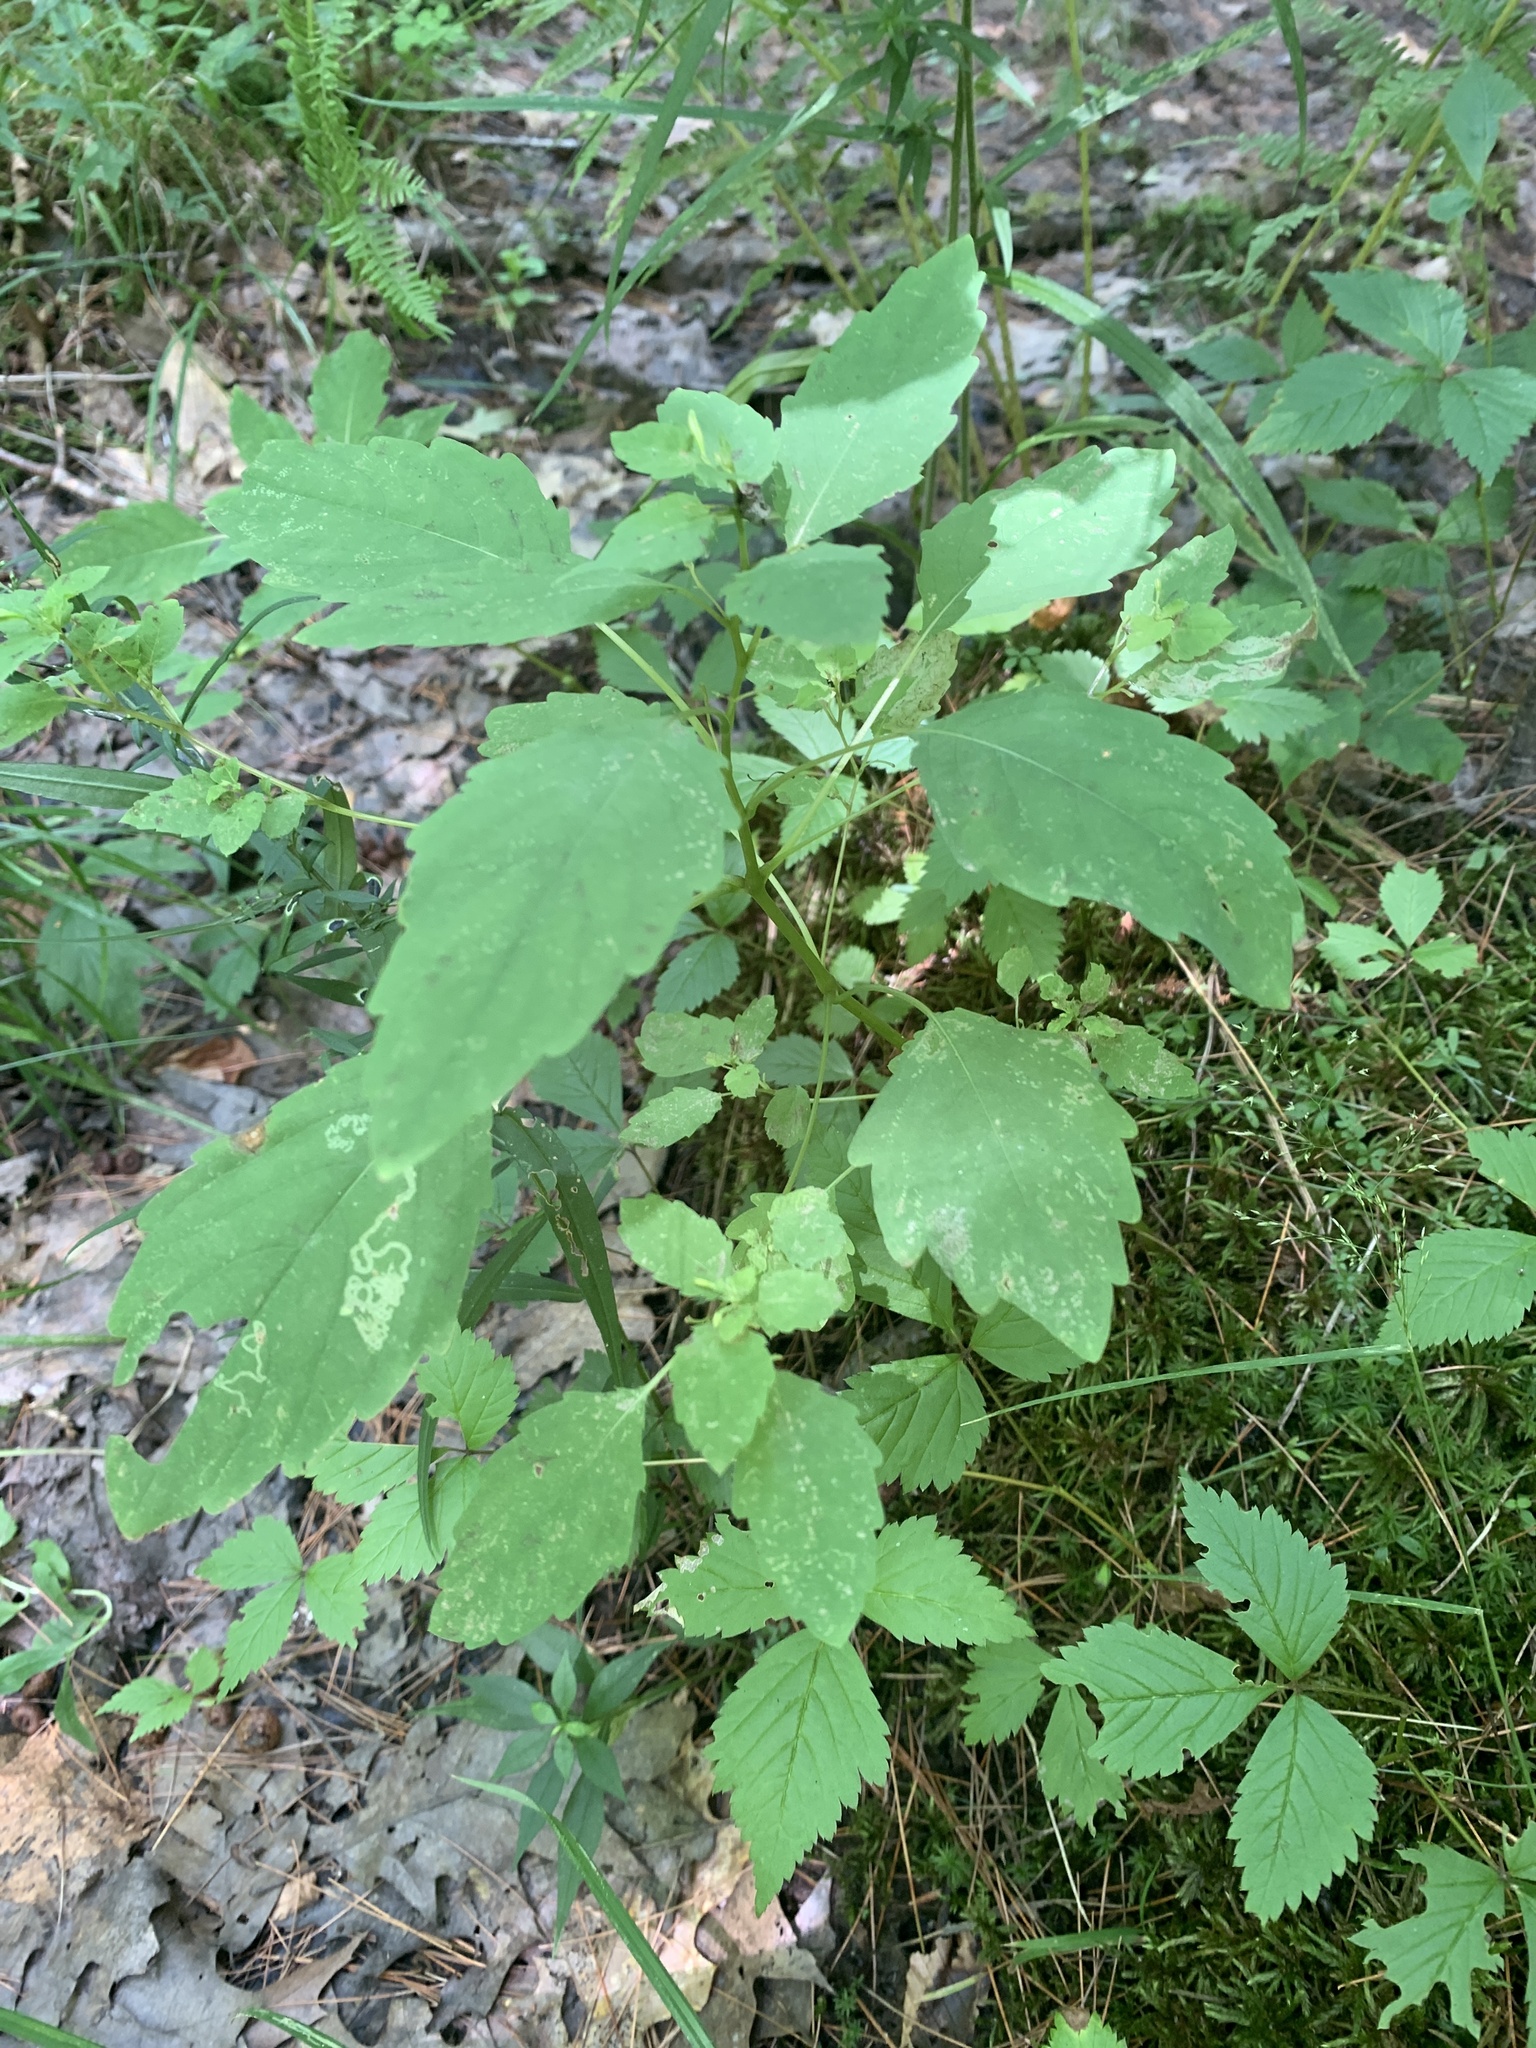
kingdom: Plantae
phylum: Tracheophyta
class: Magnoliopsida
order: Ericales
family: Balsaminaceae
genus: Impatiens
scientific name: Impatiens capensis
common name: Orange balsam
